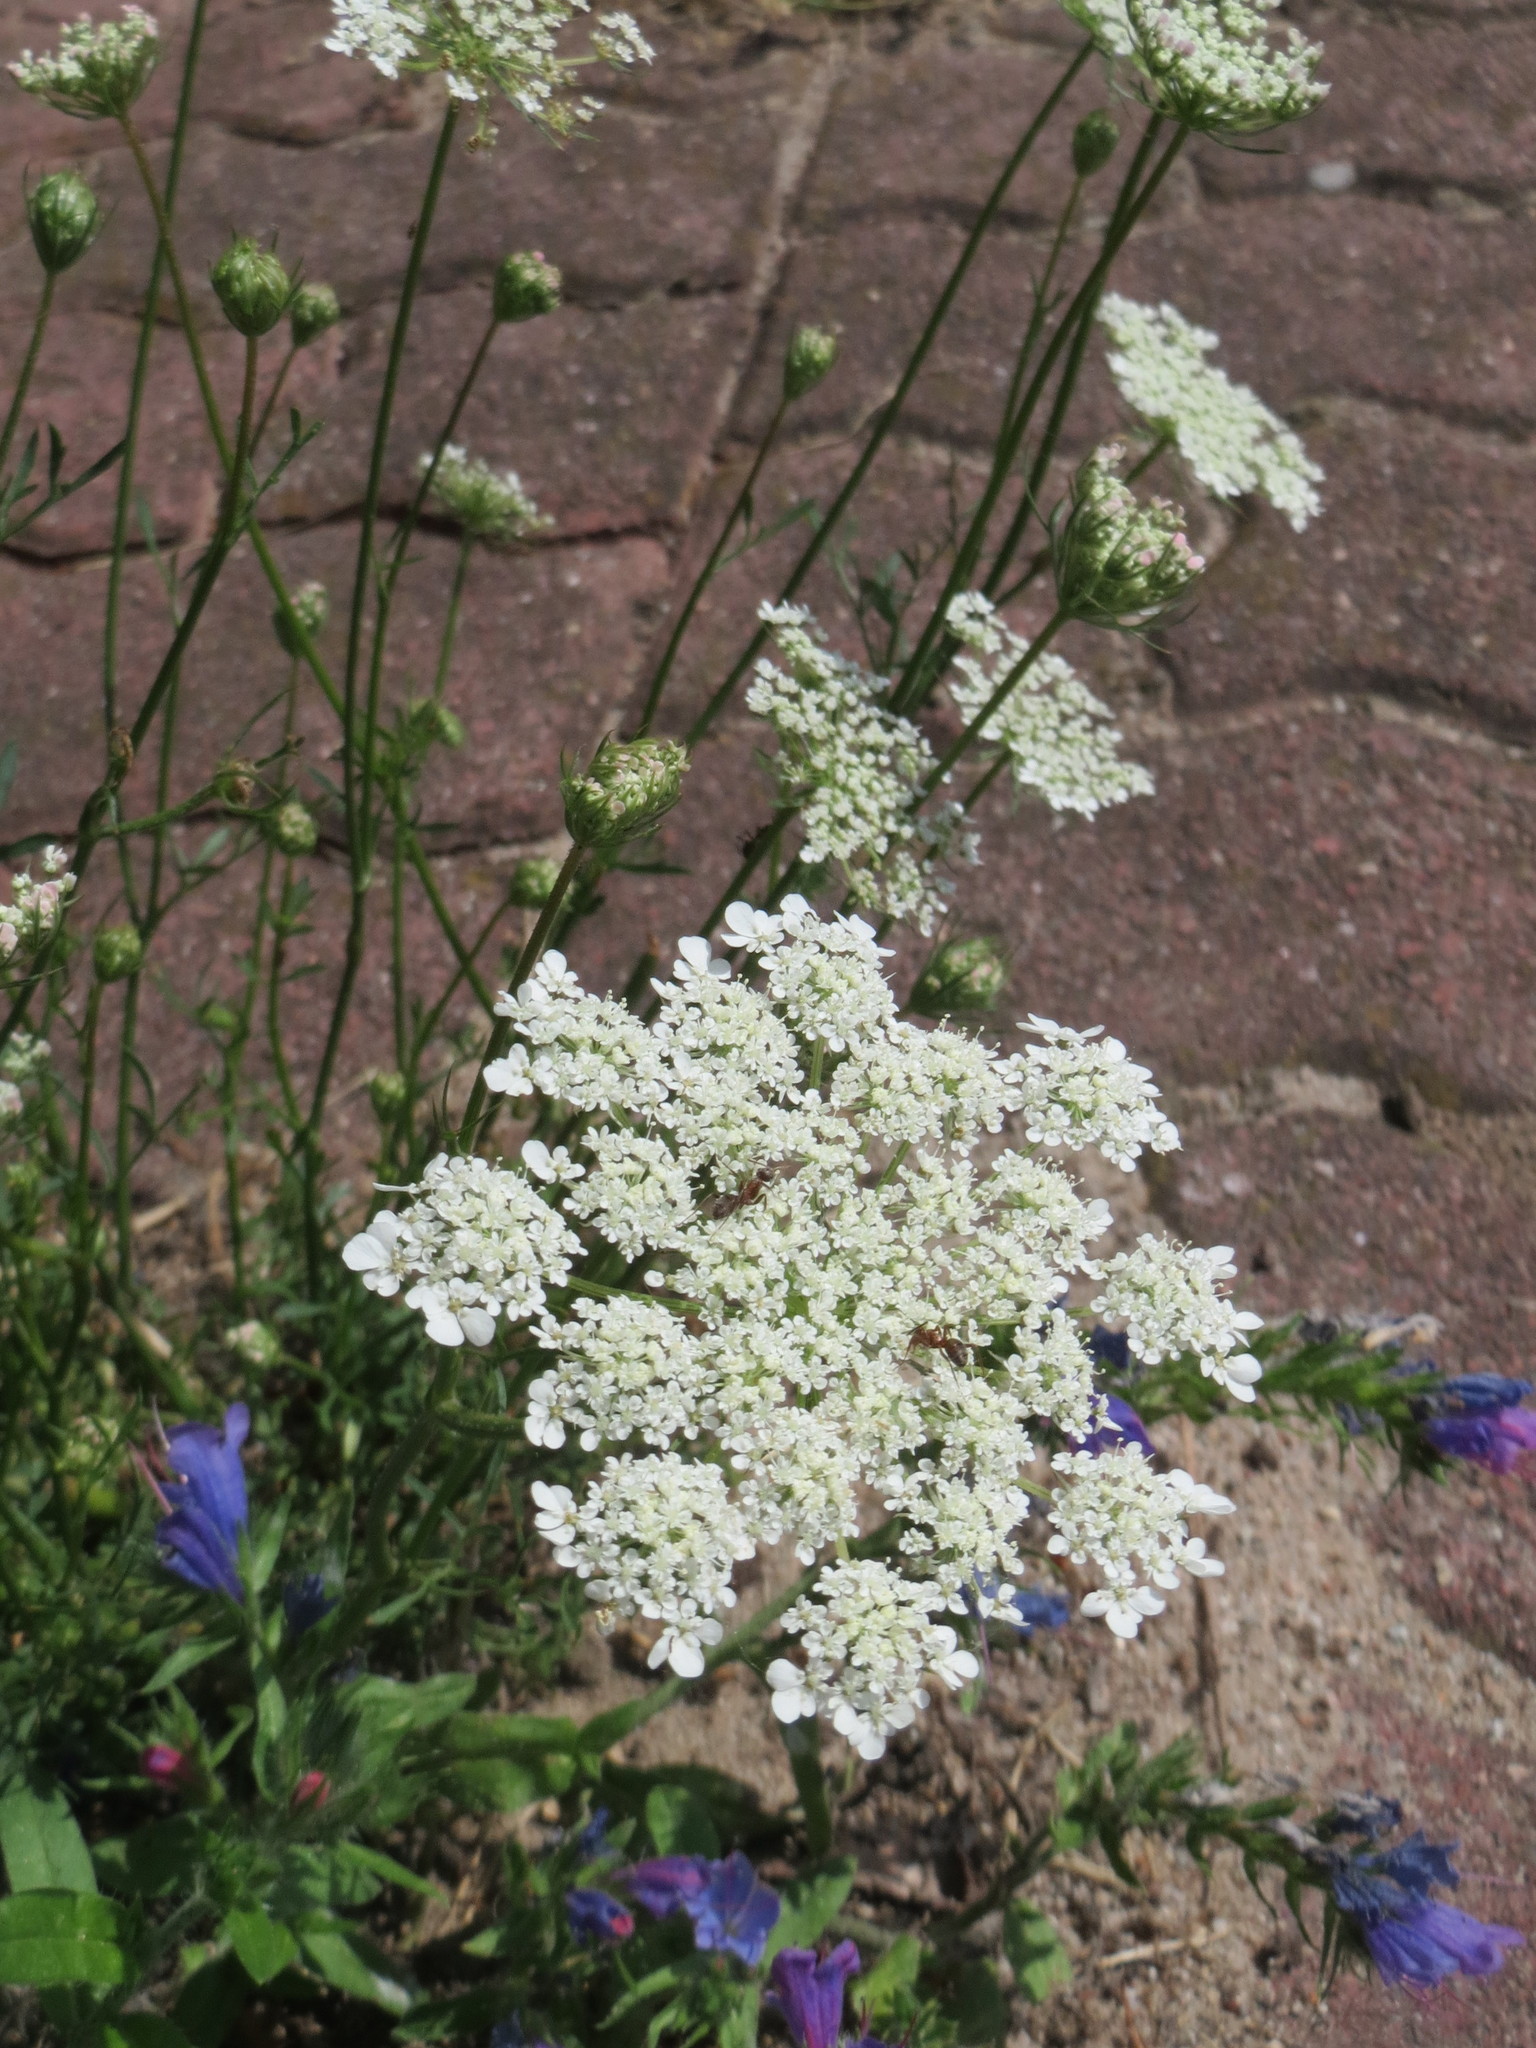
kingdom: Plantae
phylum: Tracheophyta
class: Magnoliopsida
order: Apiales
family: Apiaceae
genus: Daucus
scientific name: Daucus carota
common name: Wild carrot
